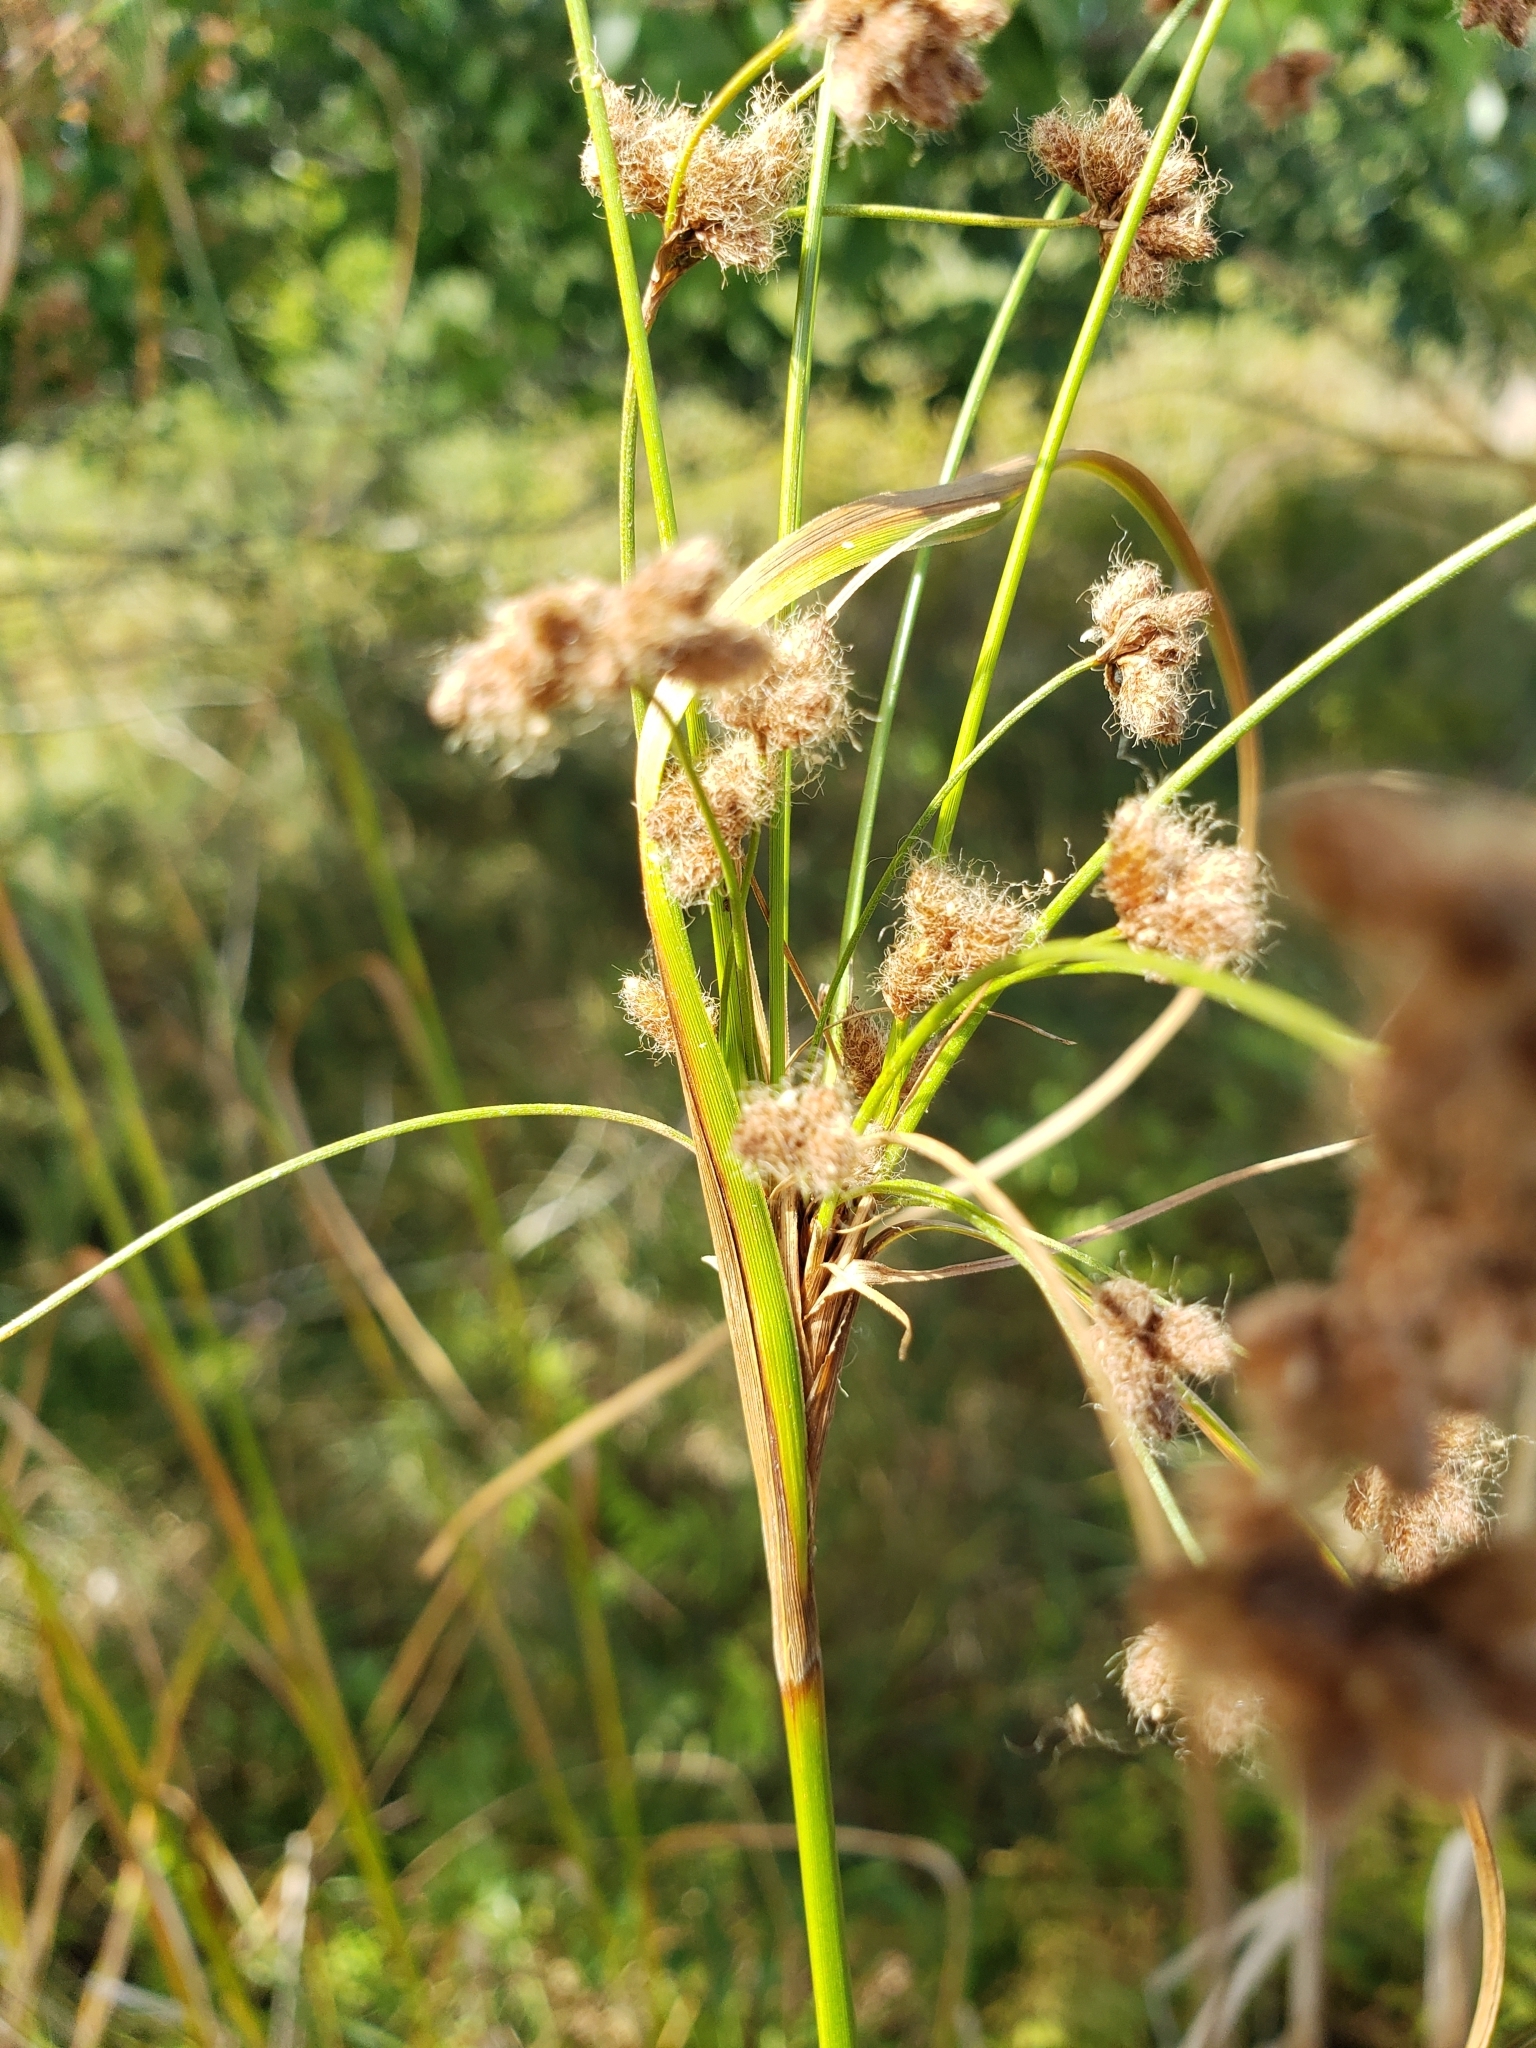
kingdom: Plantae
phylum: Tracheophyta
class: Liliopsida
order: Poales
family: Cyperaceae
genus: Scirpus
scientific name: Scirpus cyperinus
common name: Black-sheathed bulrush
